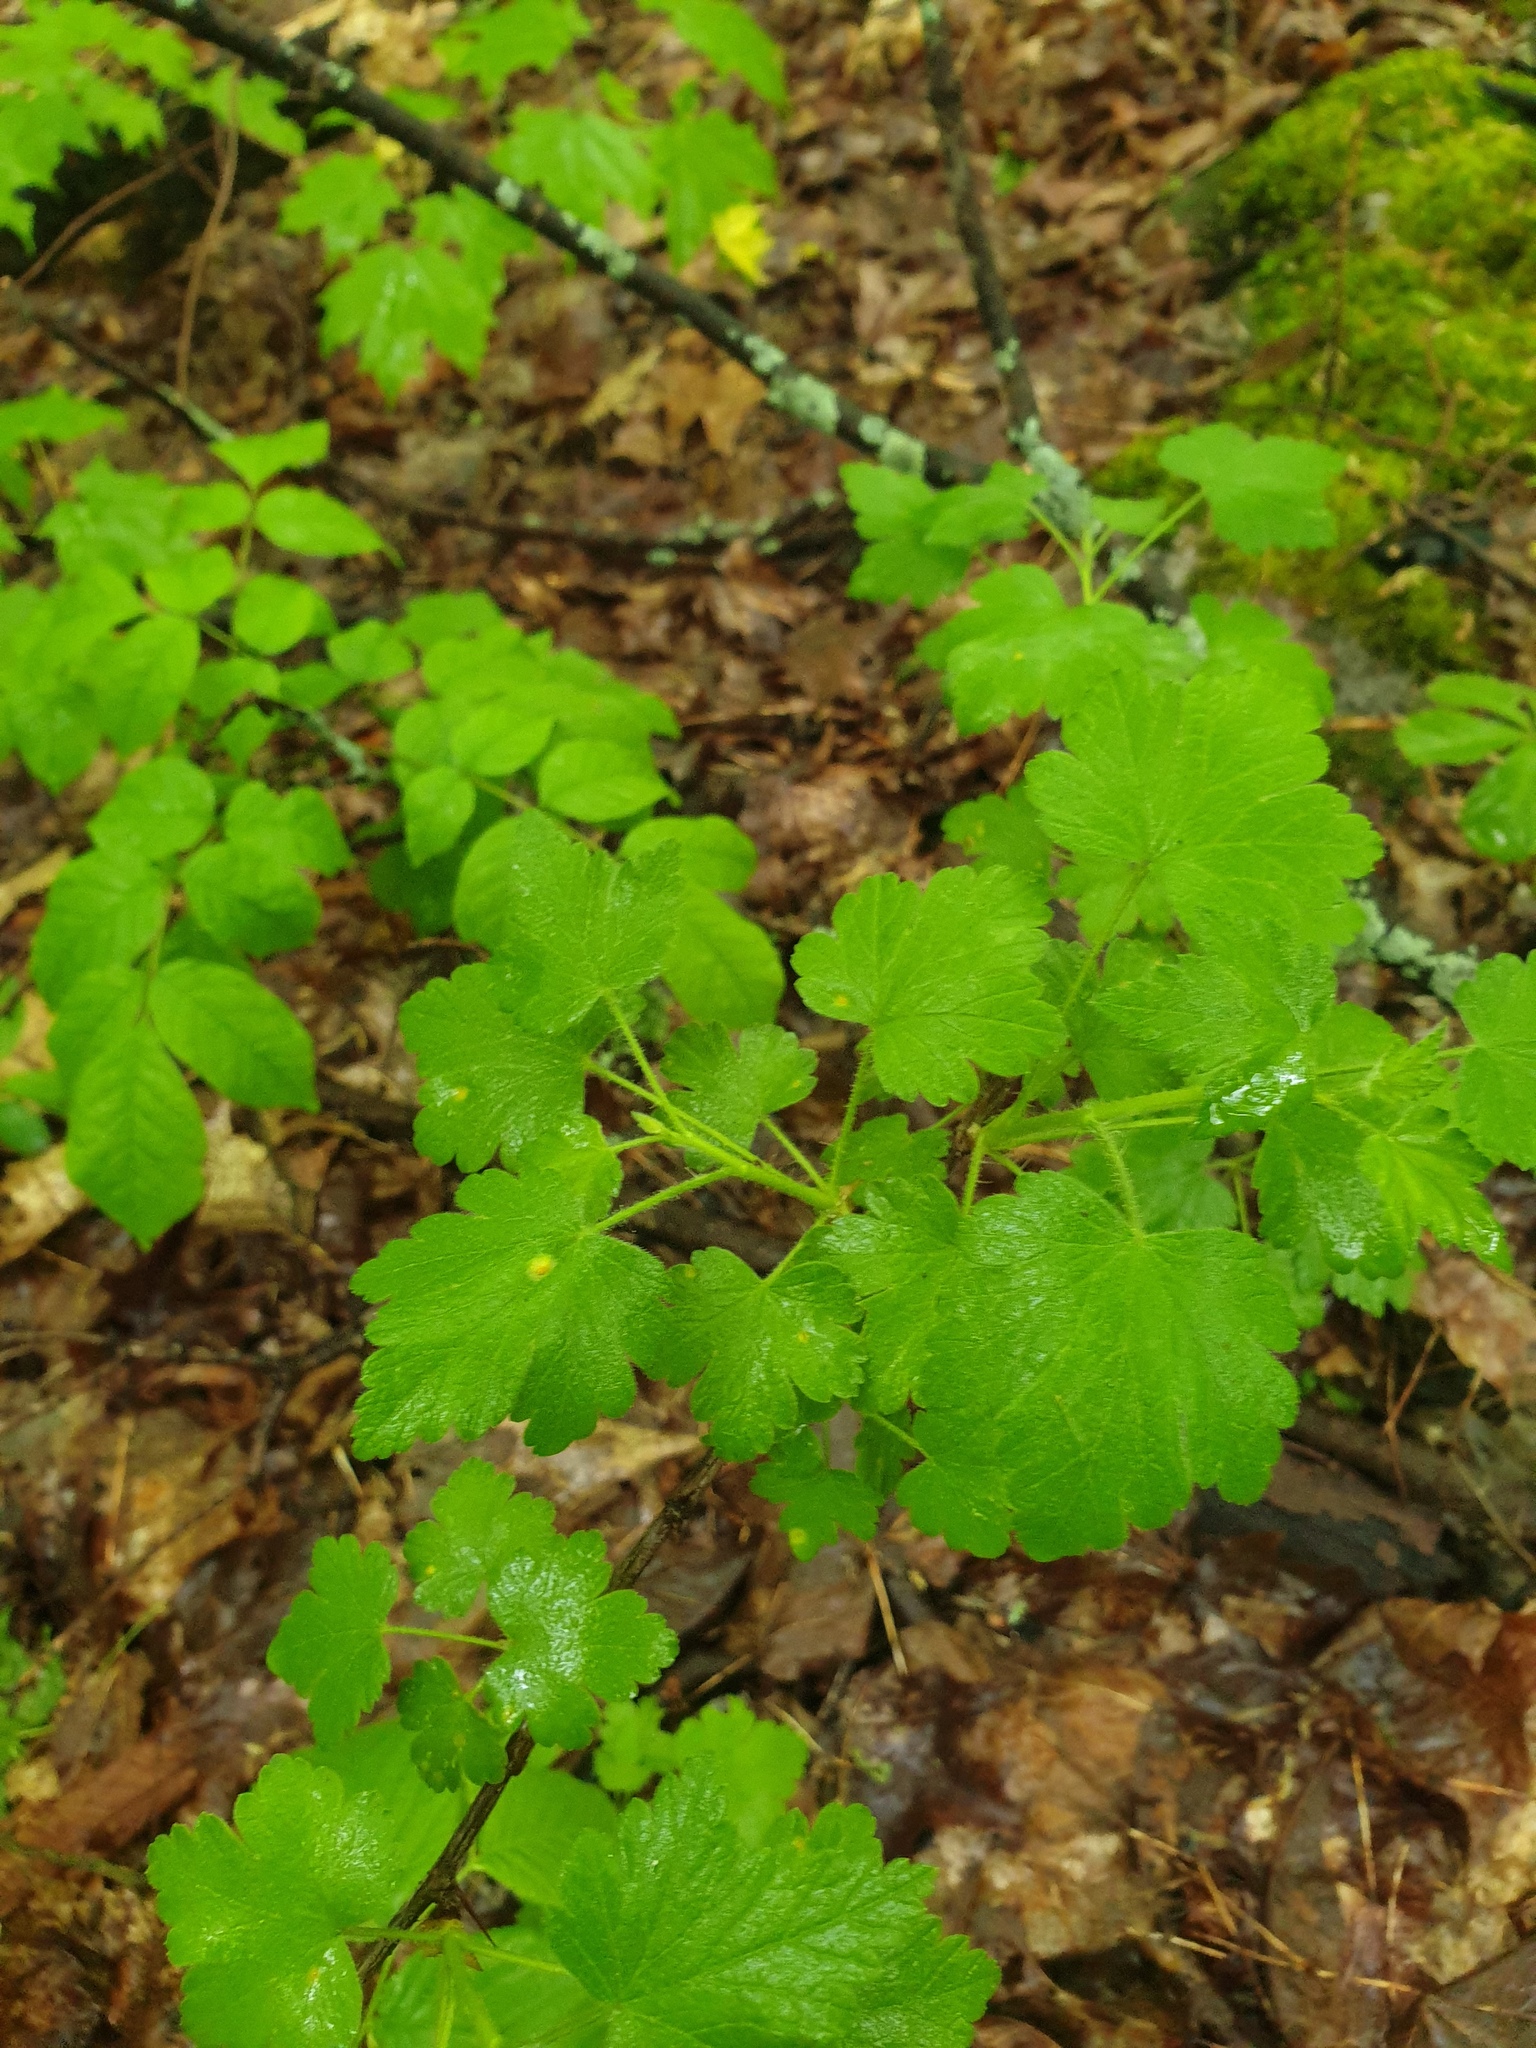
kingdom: Plantae
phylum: Tracheophyta
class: Magnoliopsida
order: Saxifragales
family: Grossulariaceae
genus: Ribes
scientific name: Ribes cynosbati
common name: American gooseberry
